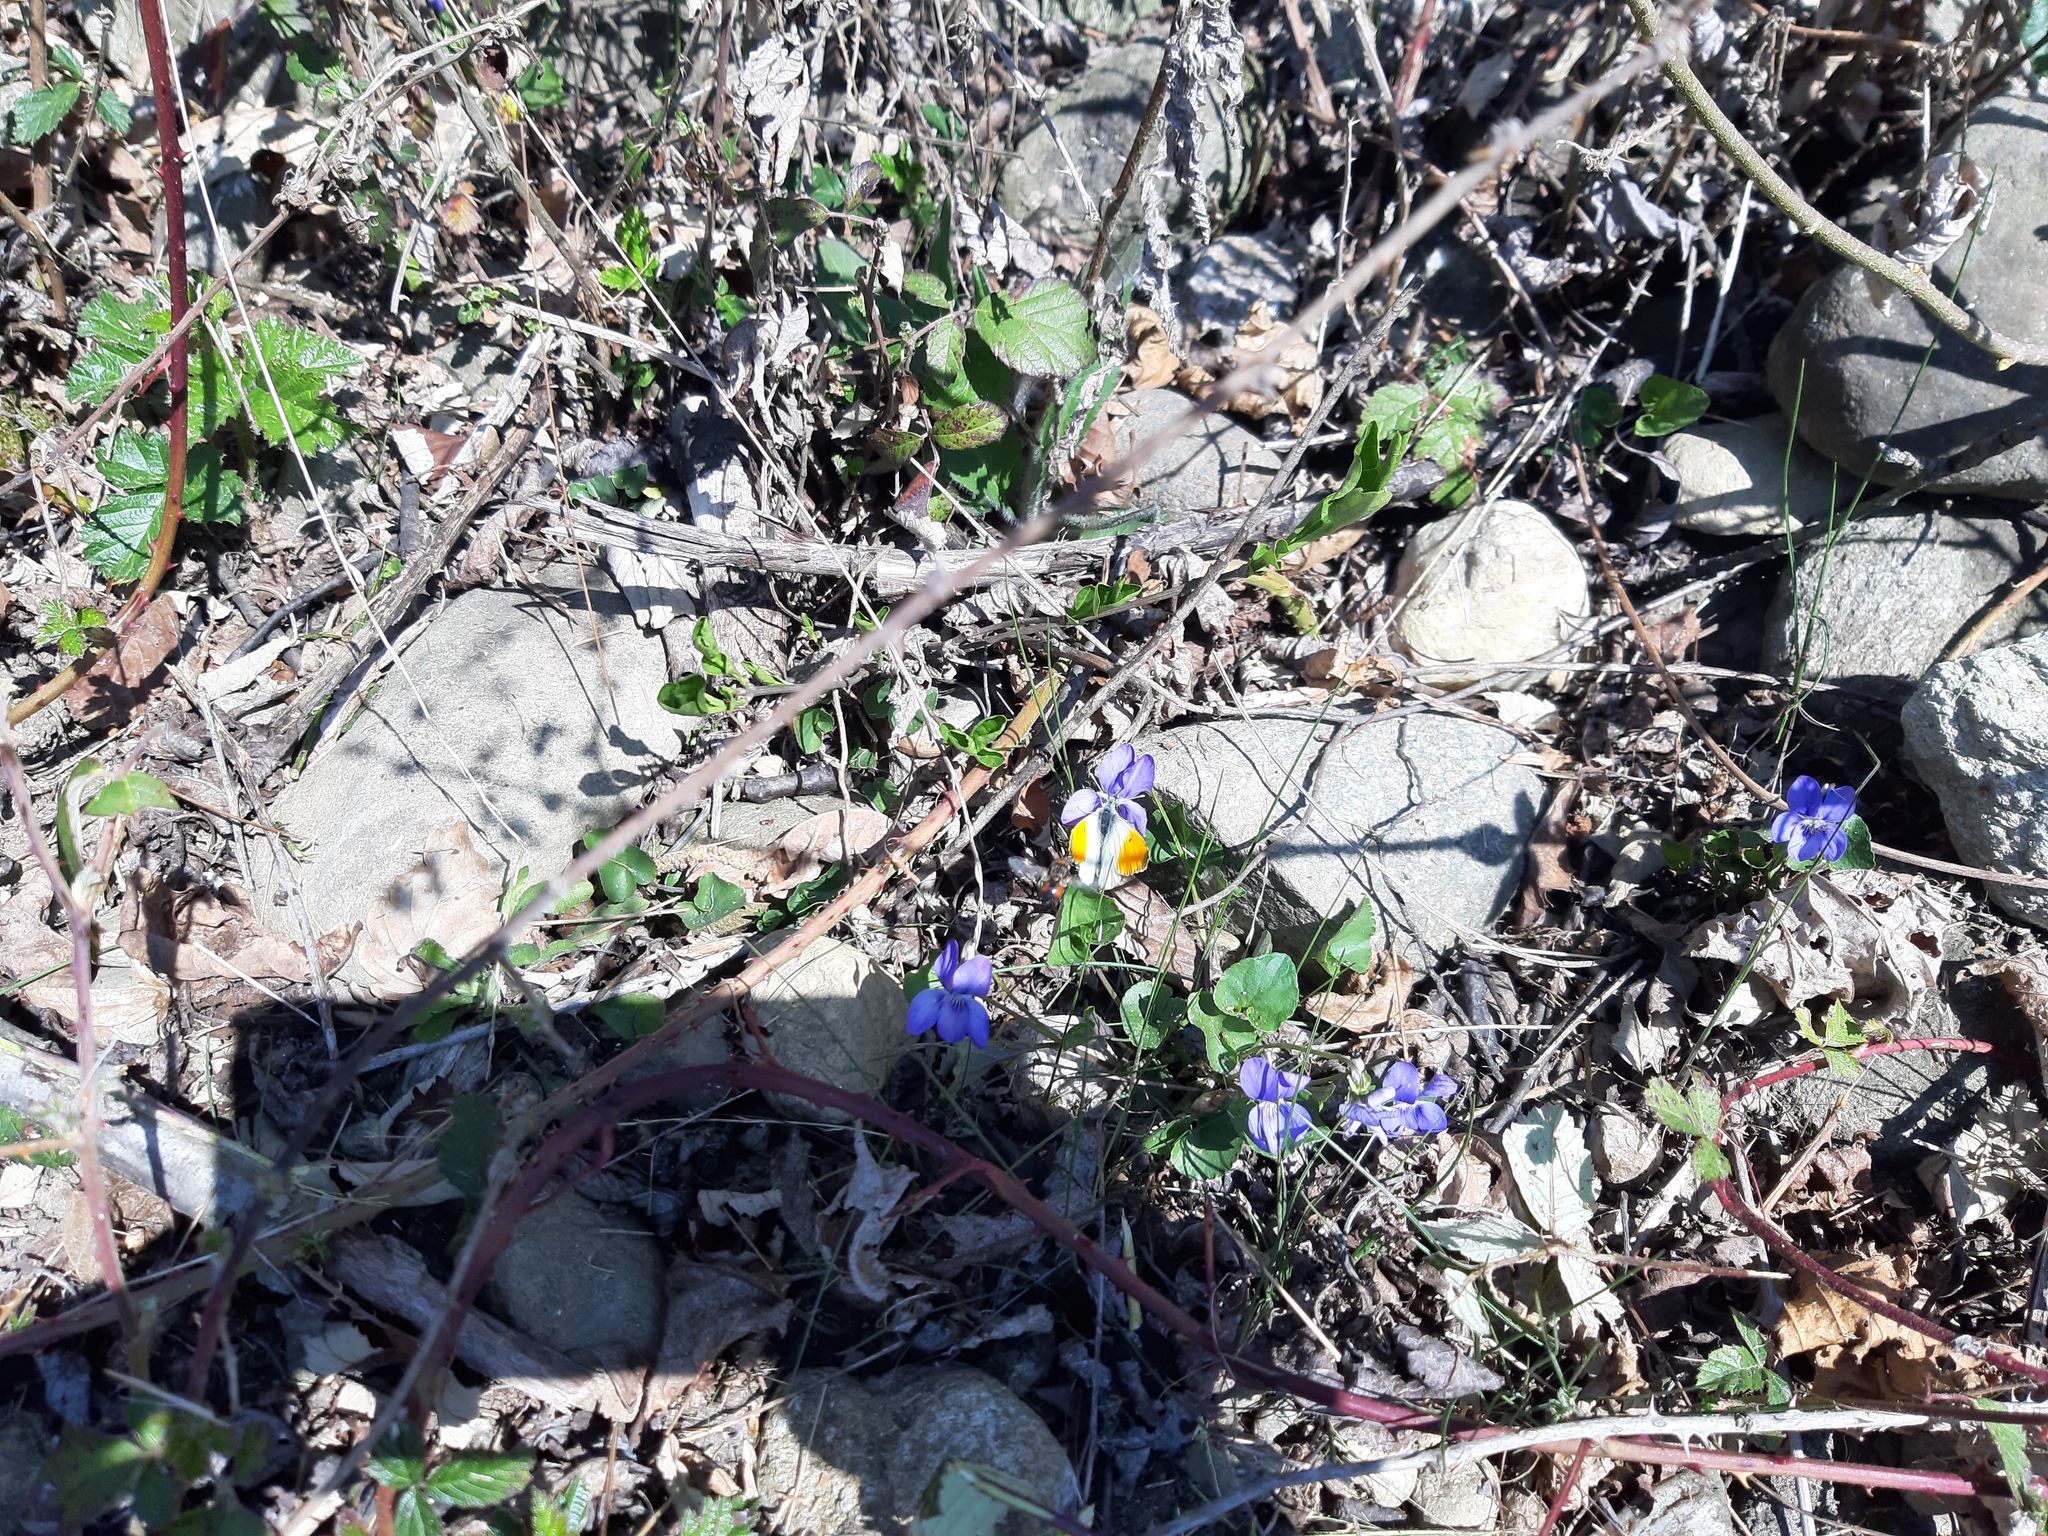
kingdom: Animalia
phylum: Arthropoda
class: Insecta
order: Lepidoptera
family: Pieridae
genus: Anthocharis
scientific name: Anthocharis cardamines
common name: Orange-tip
